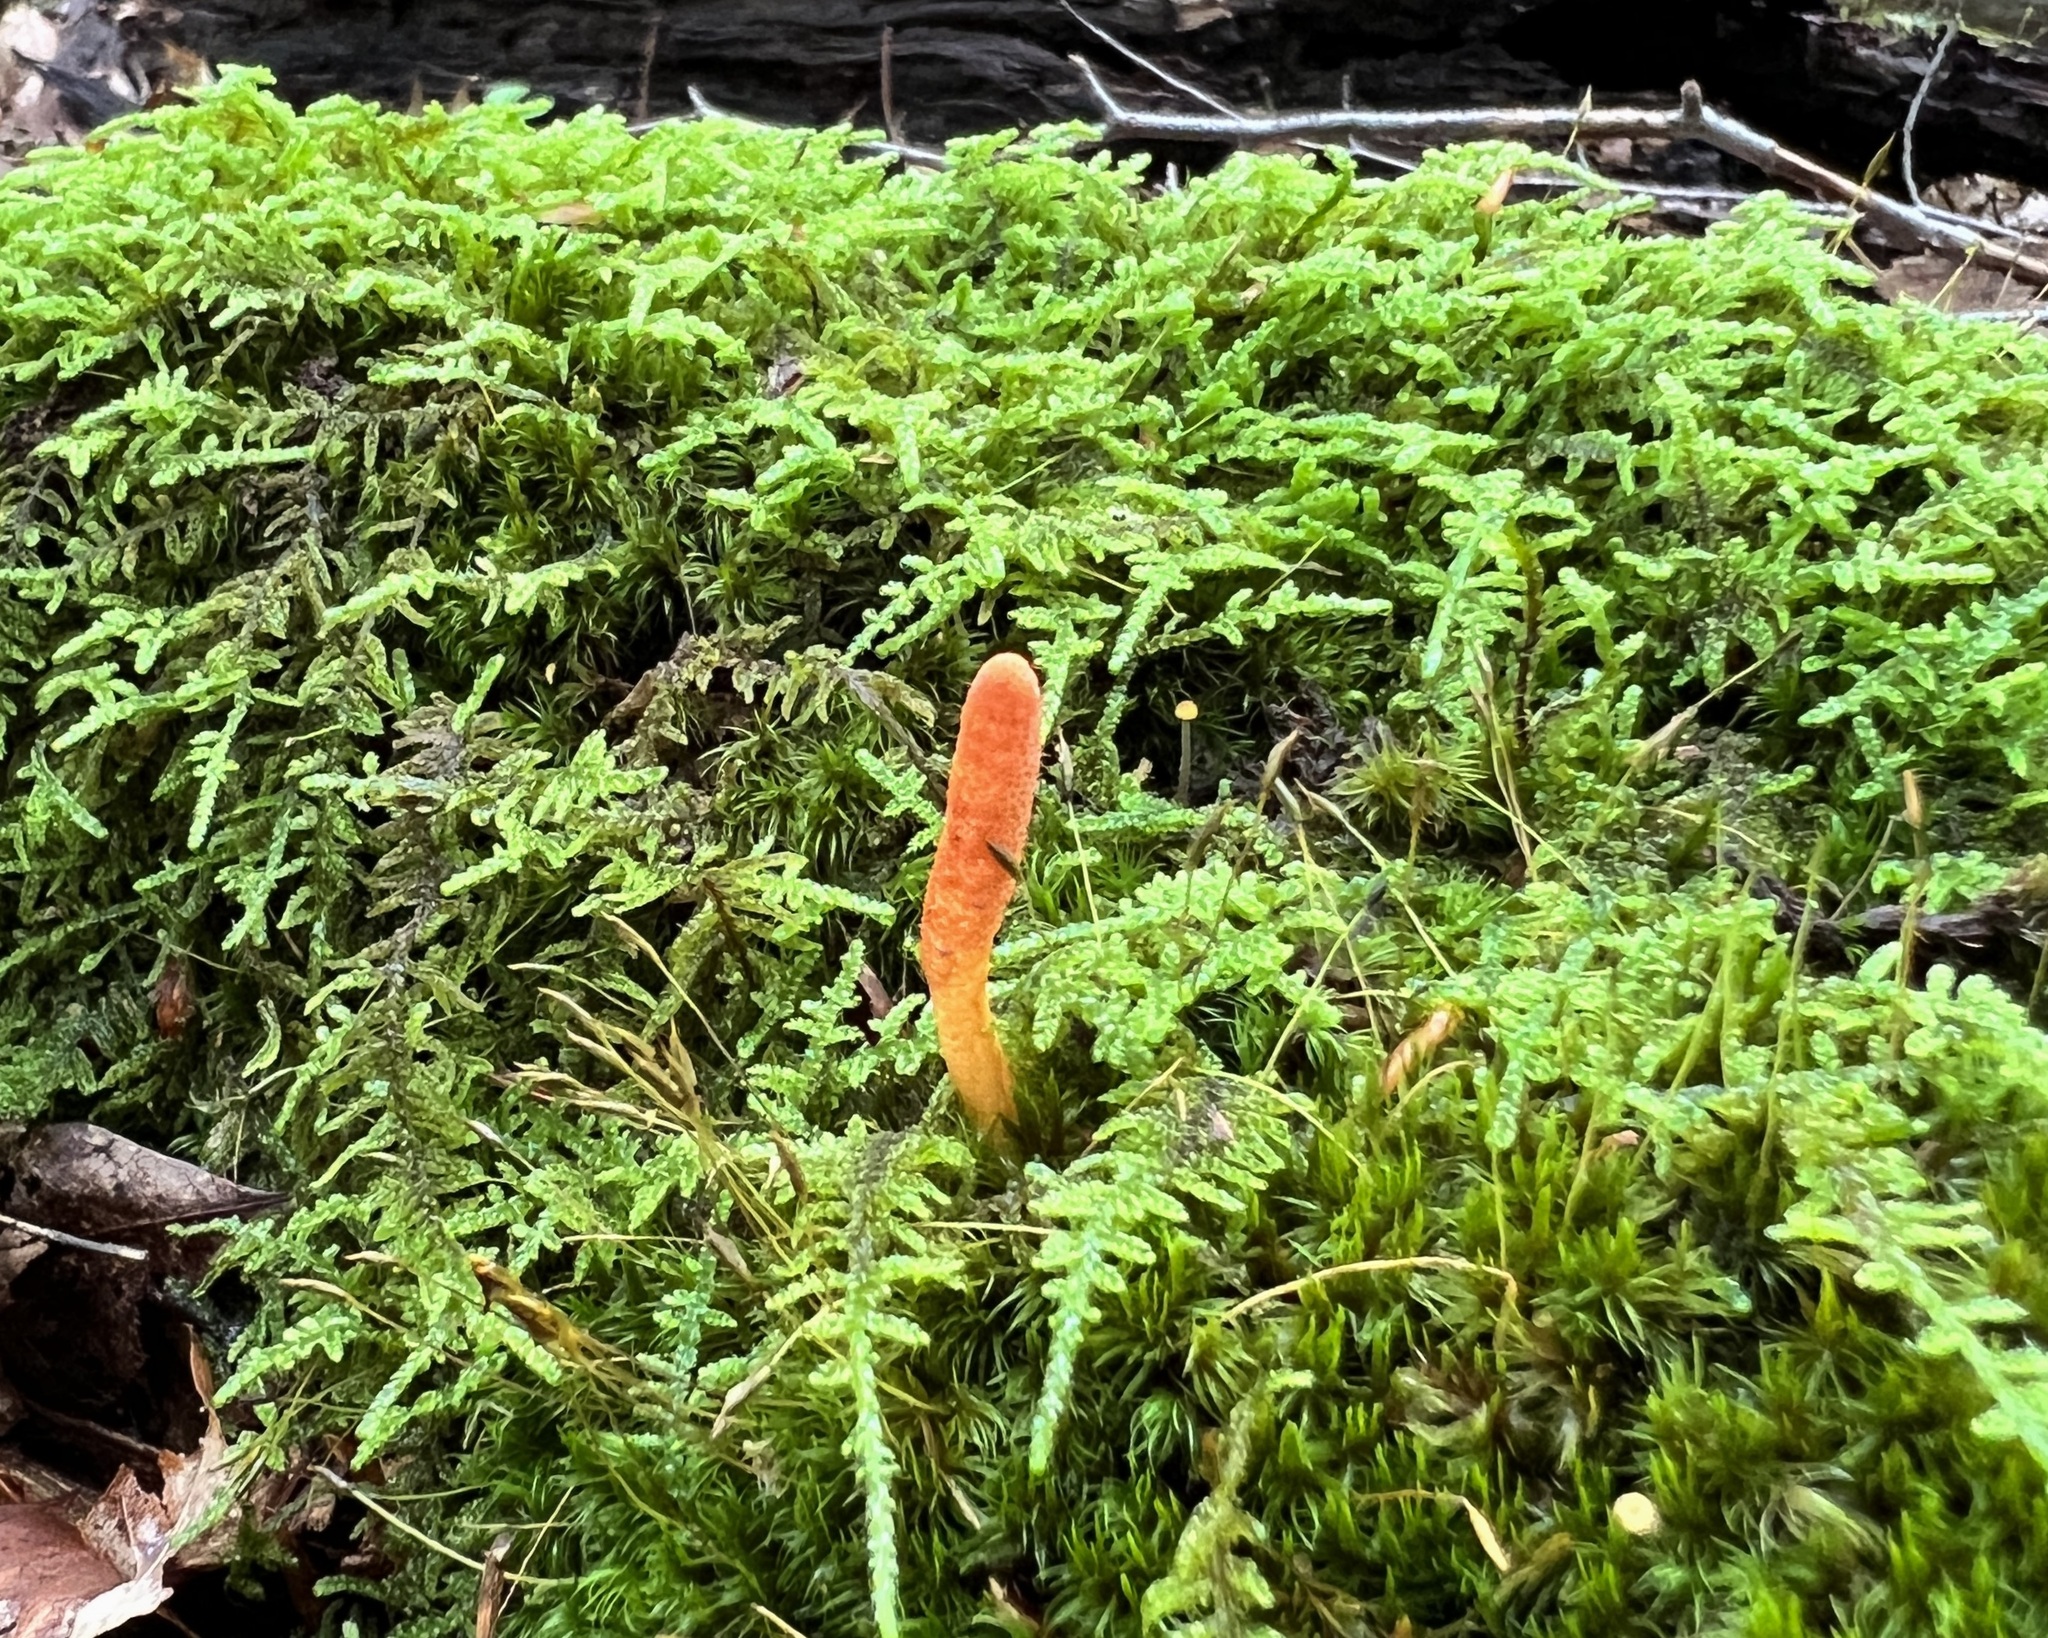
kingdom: Fungi
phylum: Ascomycota
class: Sordariomycetes
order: Hypocreales
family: Cordycipitaceae
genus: Cordyceps
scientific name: Cordyceps militaris
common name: Scarlet caterpillar fungus
